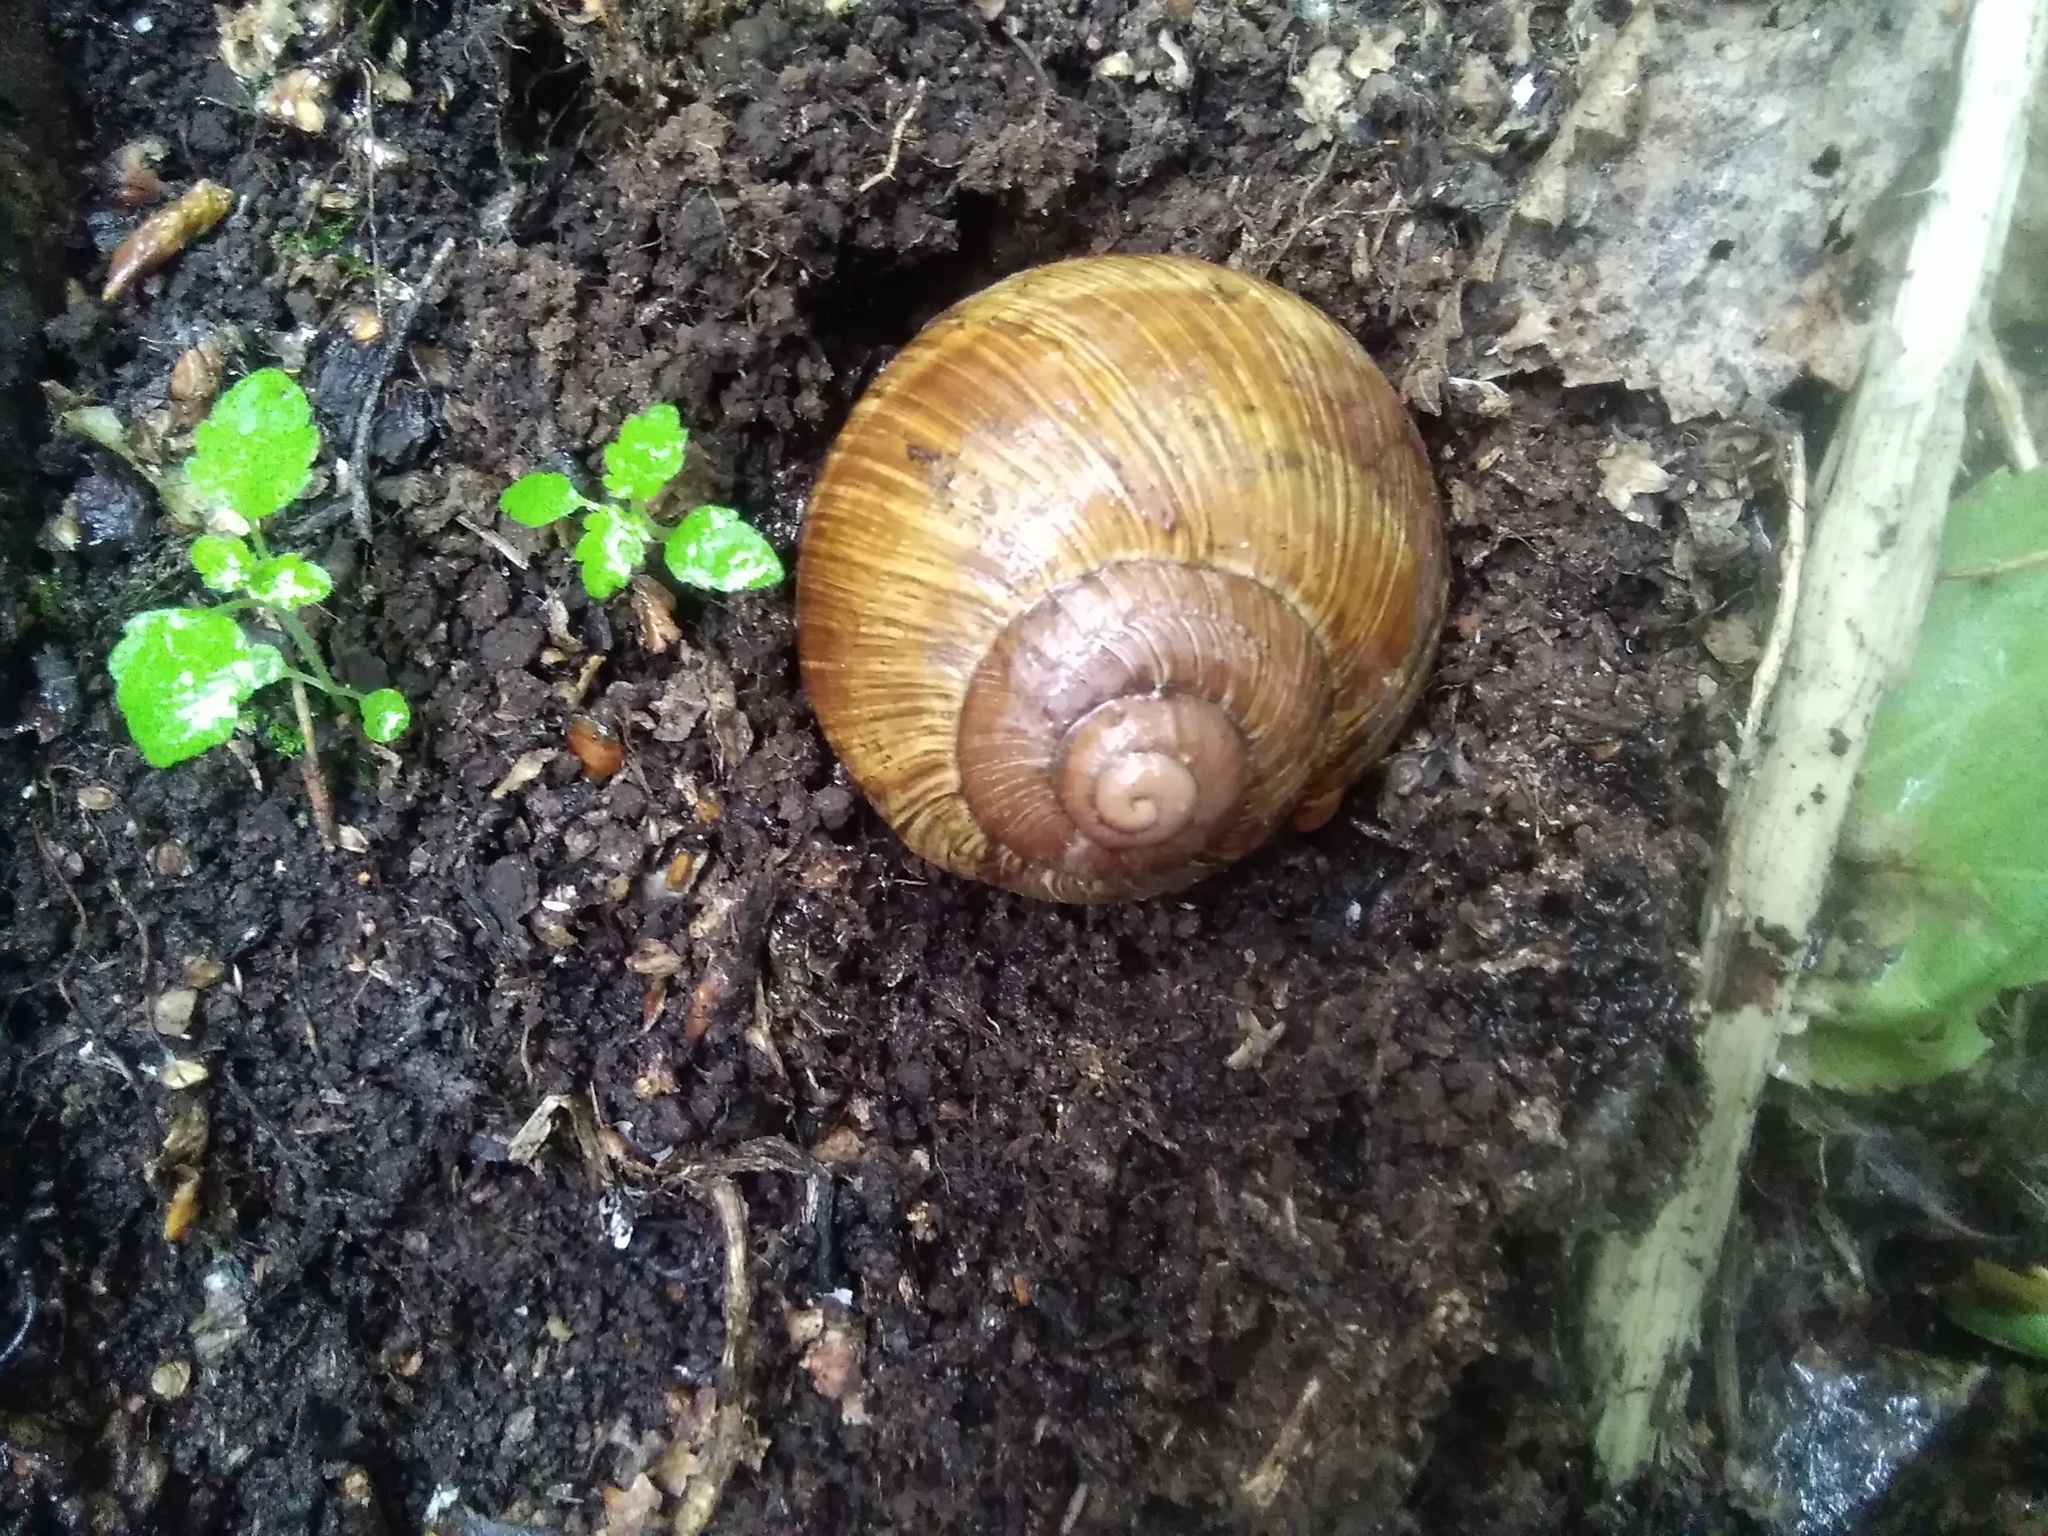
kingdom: Animalia
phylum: Mollusca
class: Gastropoda
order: Stylommatophora
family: Helicidae
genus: Helix
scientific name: Helix pomatia
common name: Roman snail
